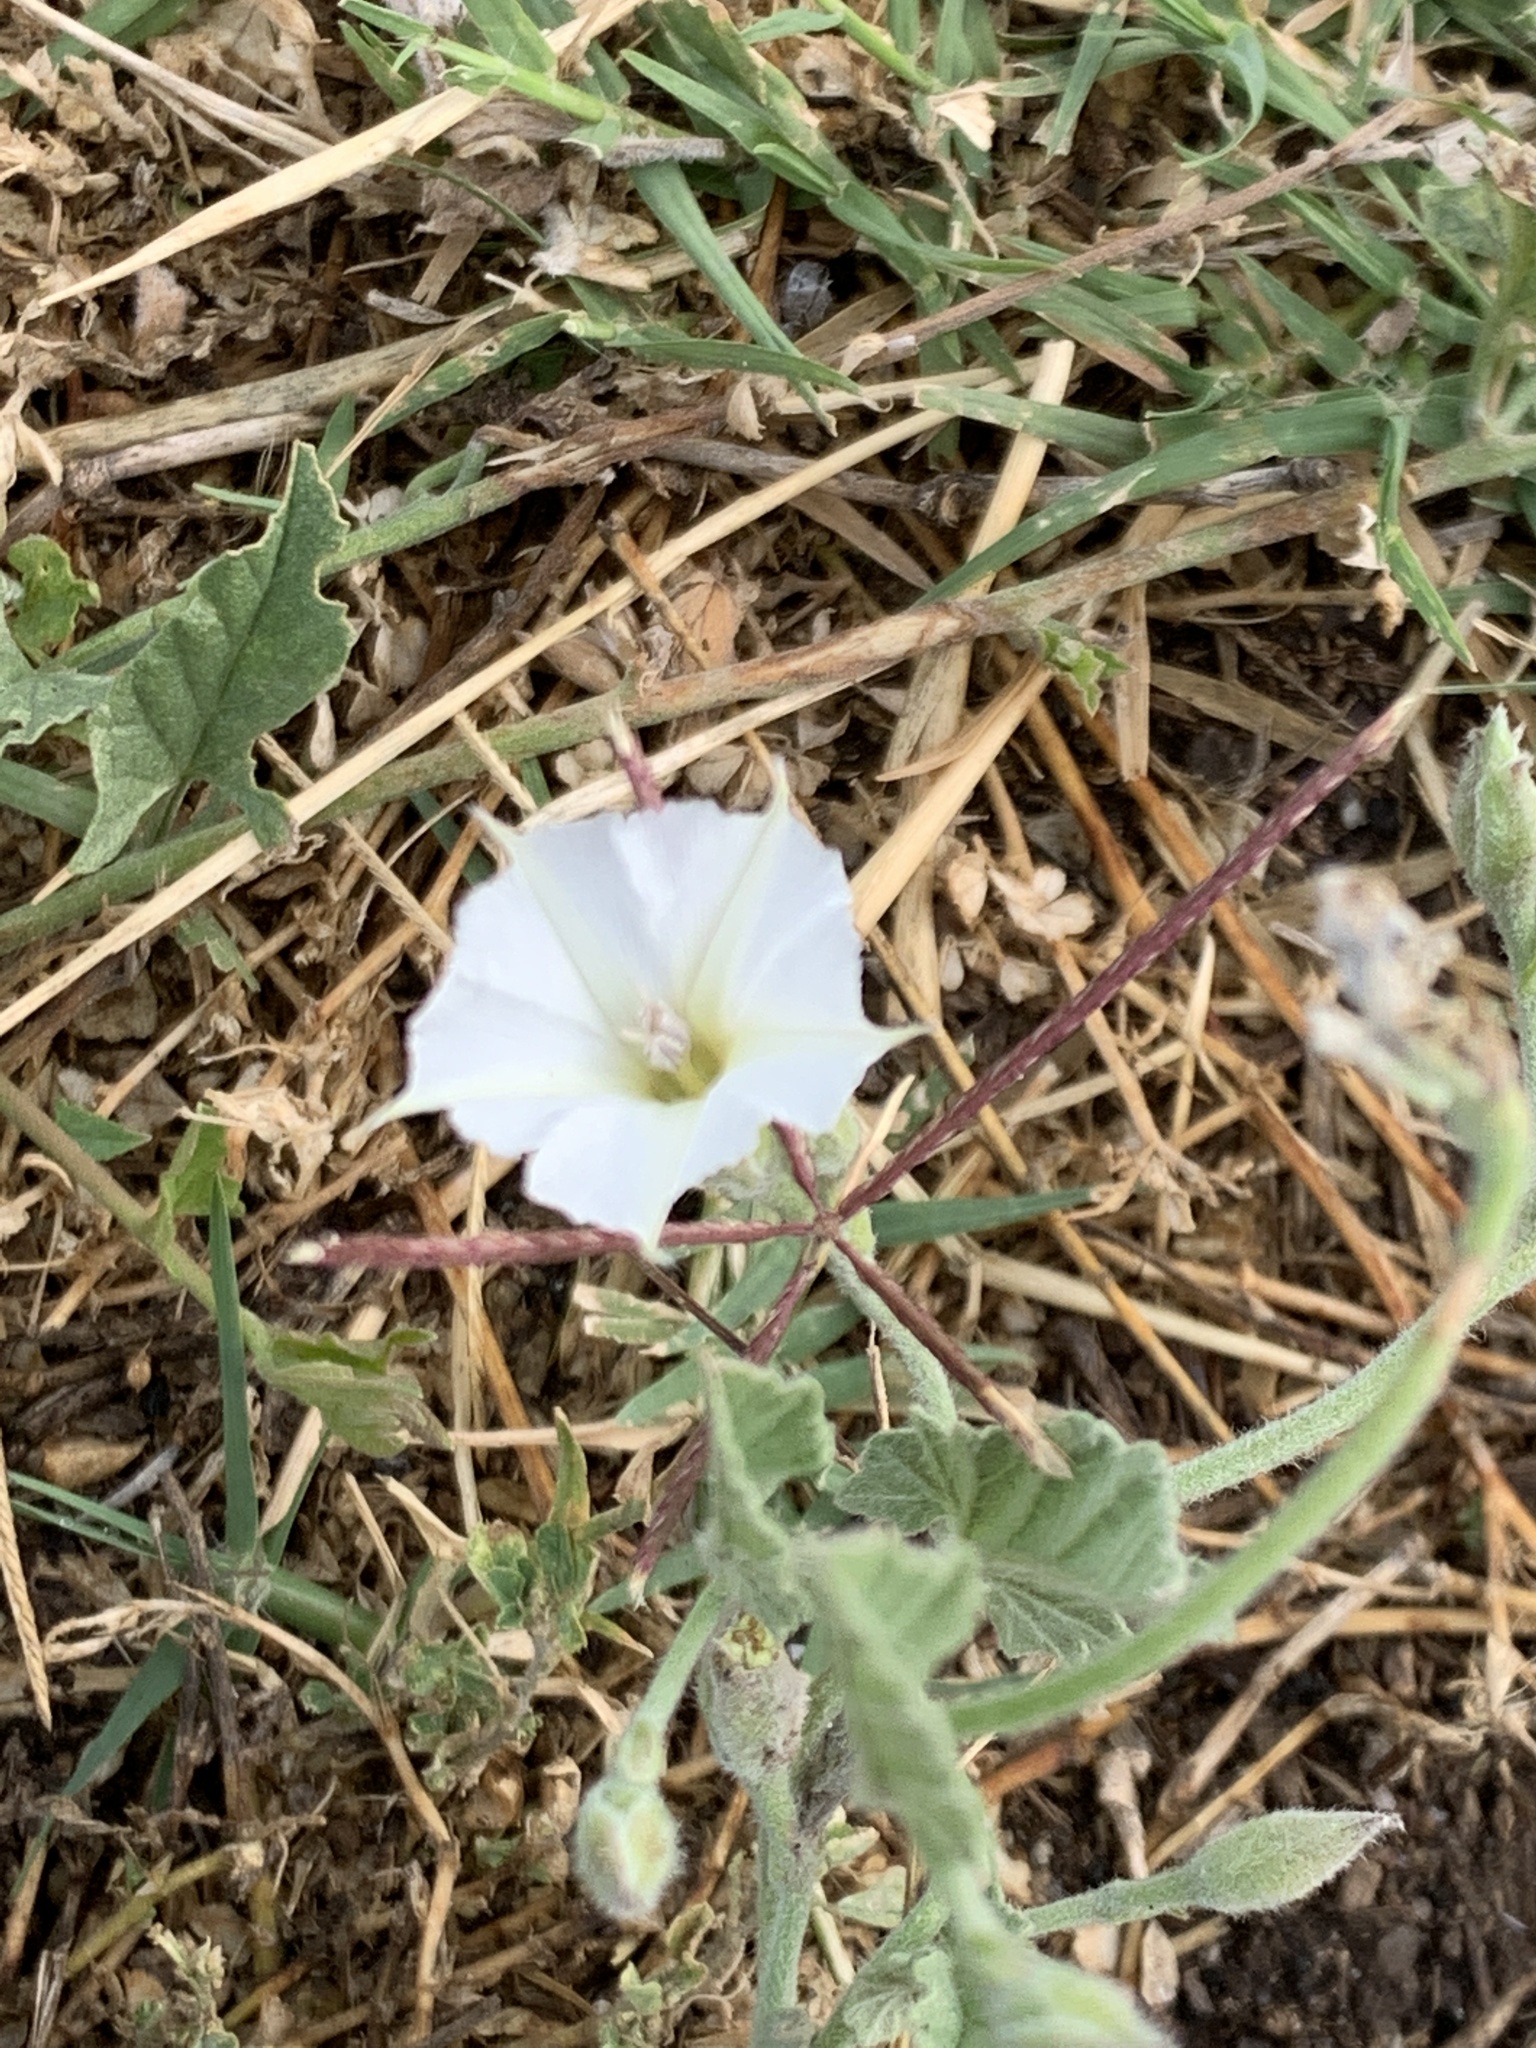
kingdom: Plantae
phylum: Tracheophyta
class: Magnoliopsida
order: Solanales
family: Convolvulaceae
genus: Convolvulus
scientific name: Convolvulus hermanniae
